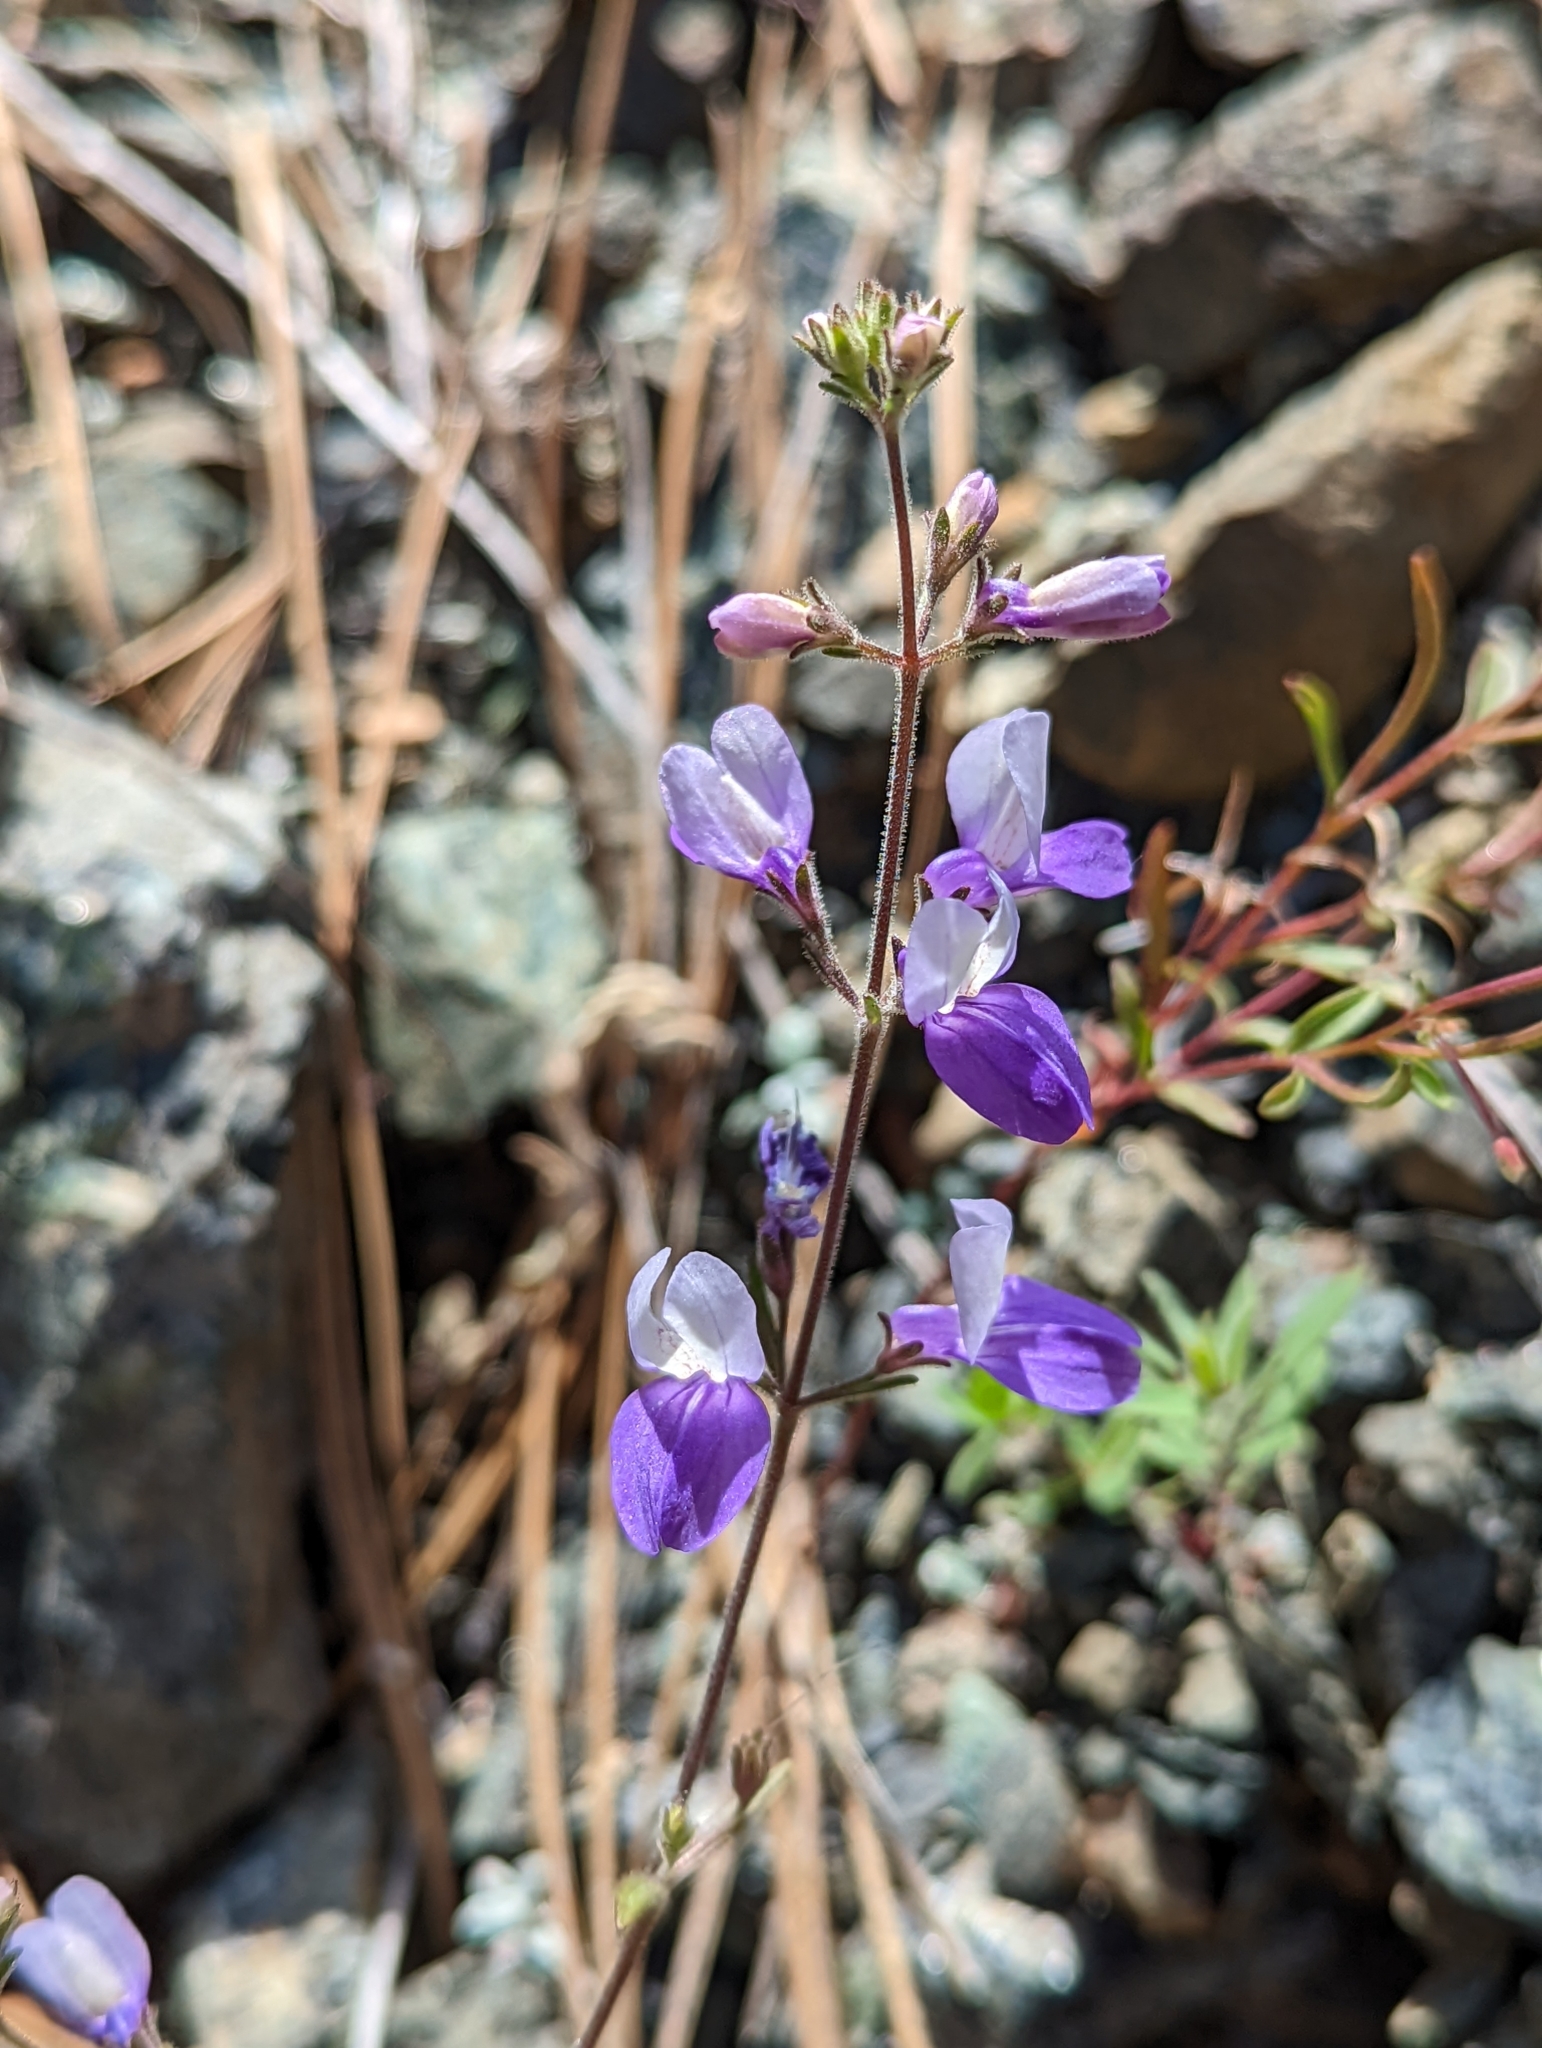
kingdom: Plantae
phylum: Tracheophyta
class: Magnoliopsida
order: Lamiales
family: Plantaginaceae
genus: Collinsia
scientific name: Collinsia linearis
